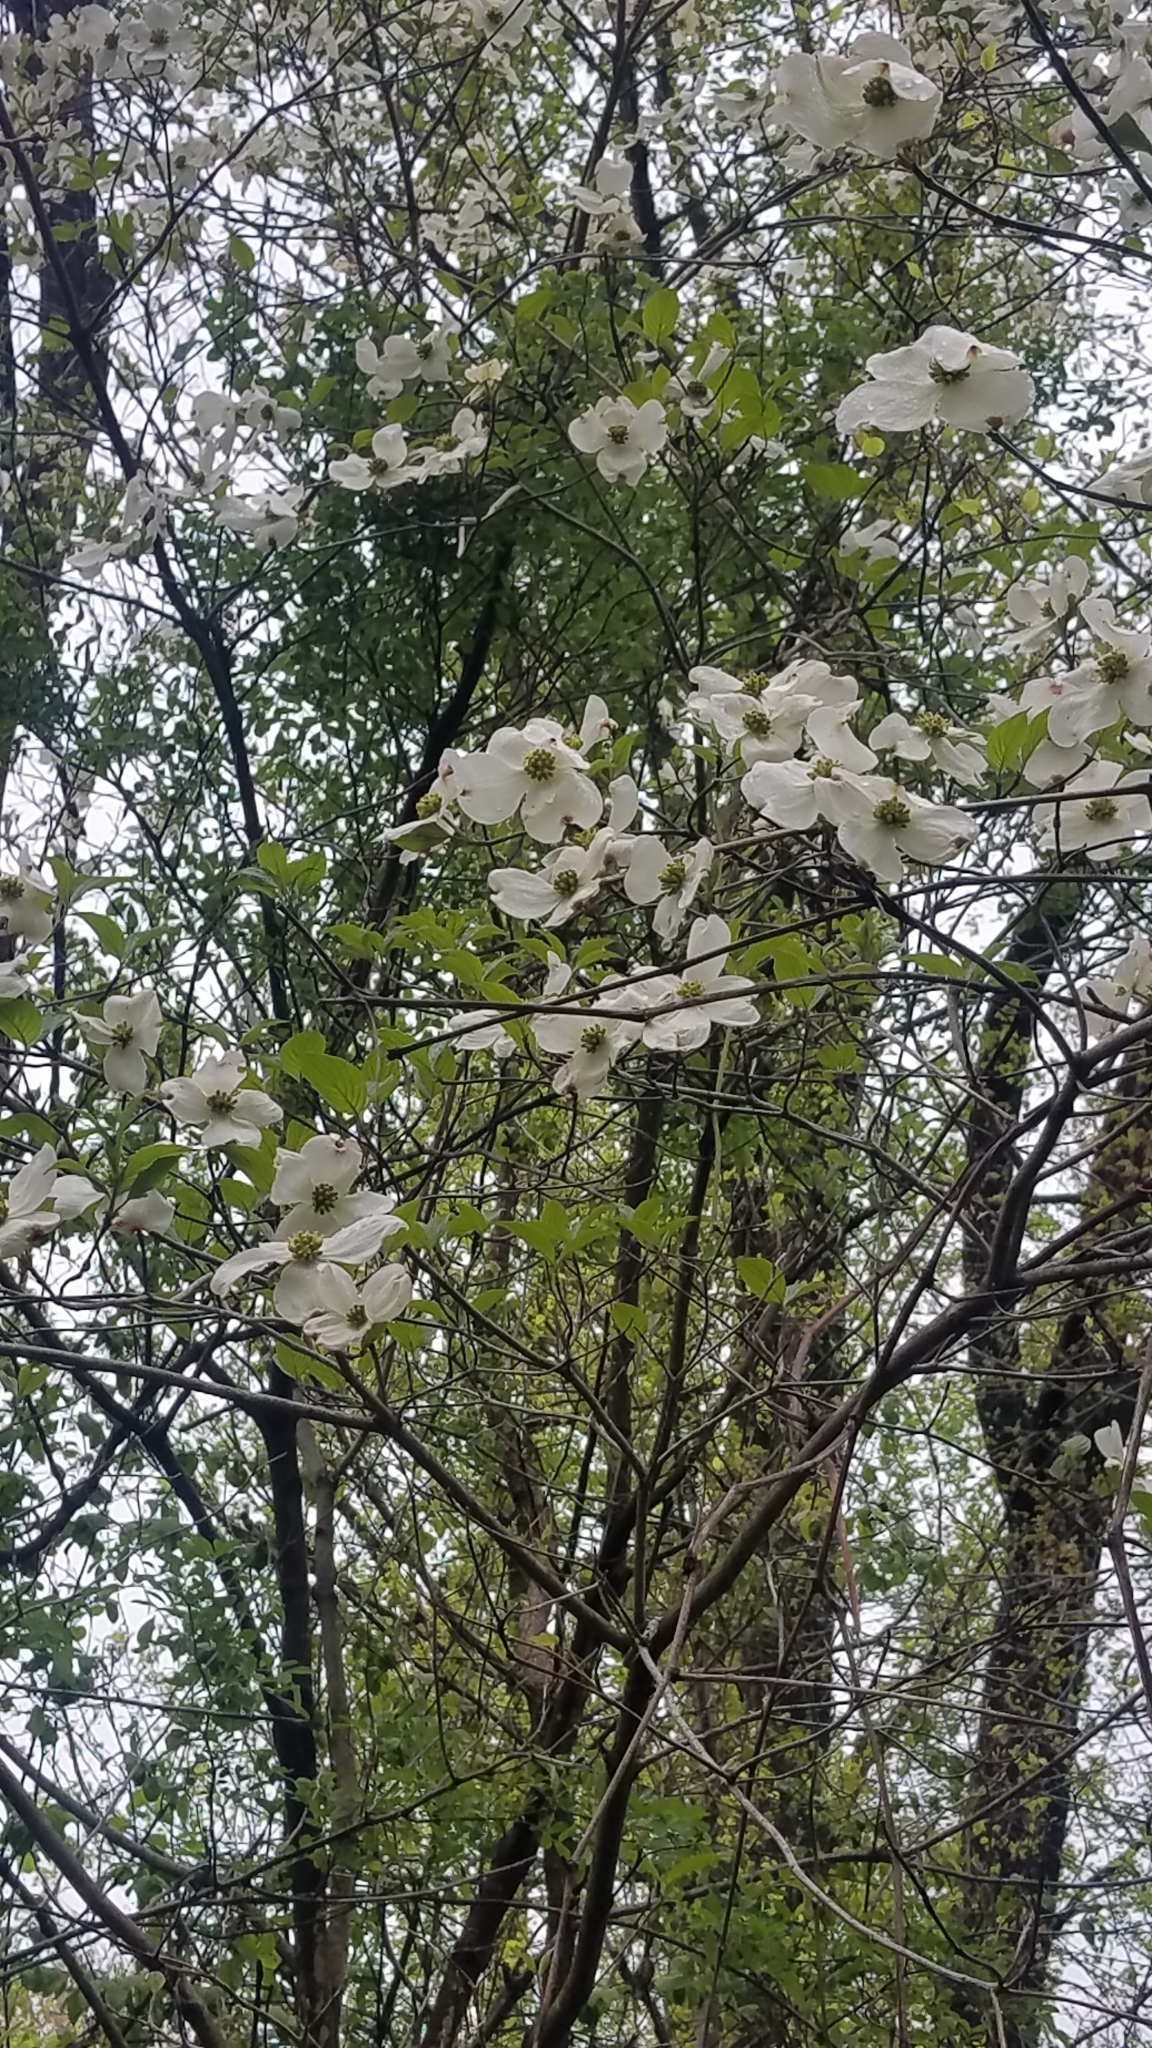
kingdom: Plantae
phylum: Tracheophyta
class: Magnoliopsida
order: Cornales
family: Cornaceae
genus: Cornus
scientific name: Cornus florida
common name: Flowering dogwood
